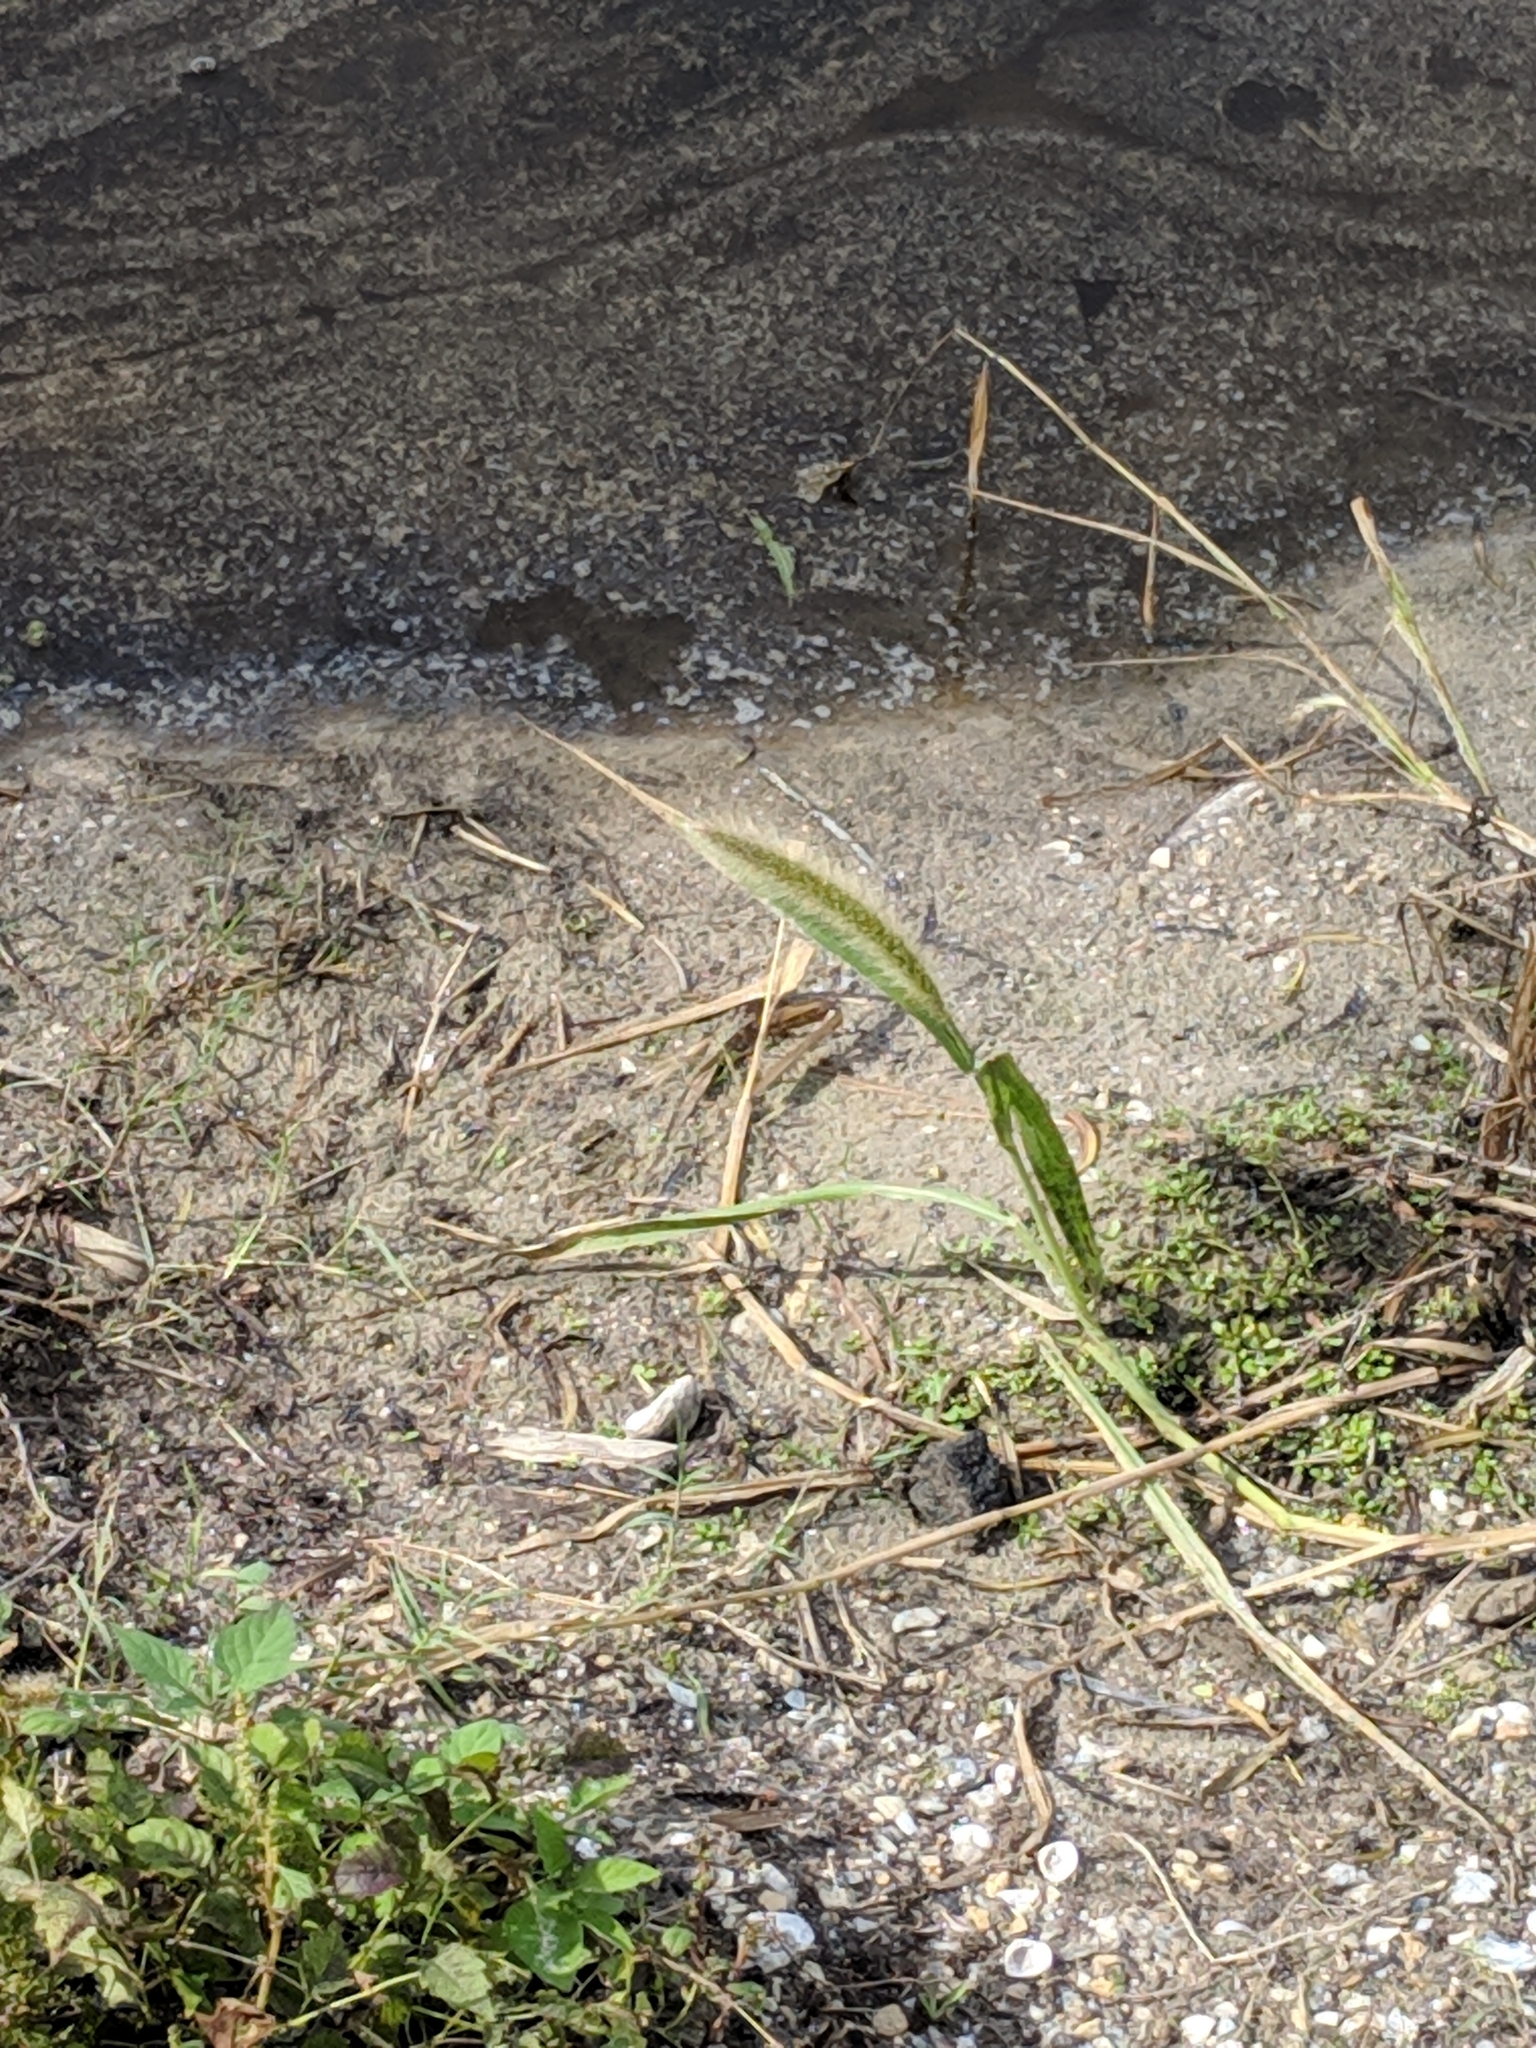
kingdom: Plantae
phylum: Tracheophyta
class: Liliopsida
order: Poales
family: Poaceae
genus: Setaria
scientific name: Setaria magna
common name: Giant bristle grass
